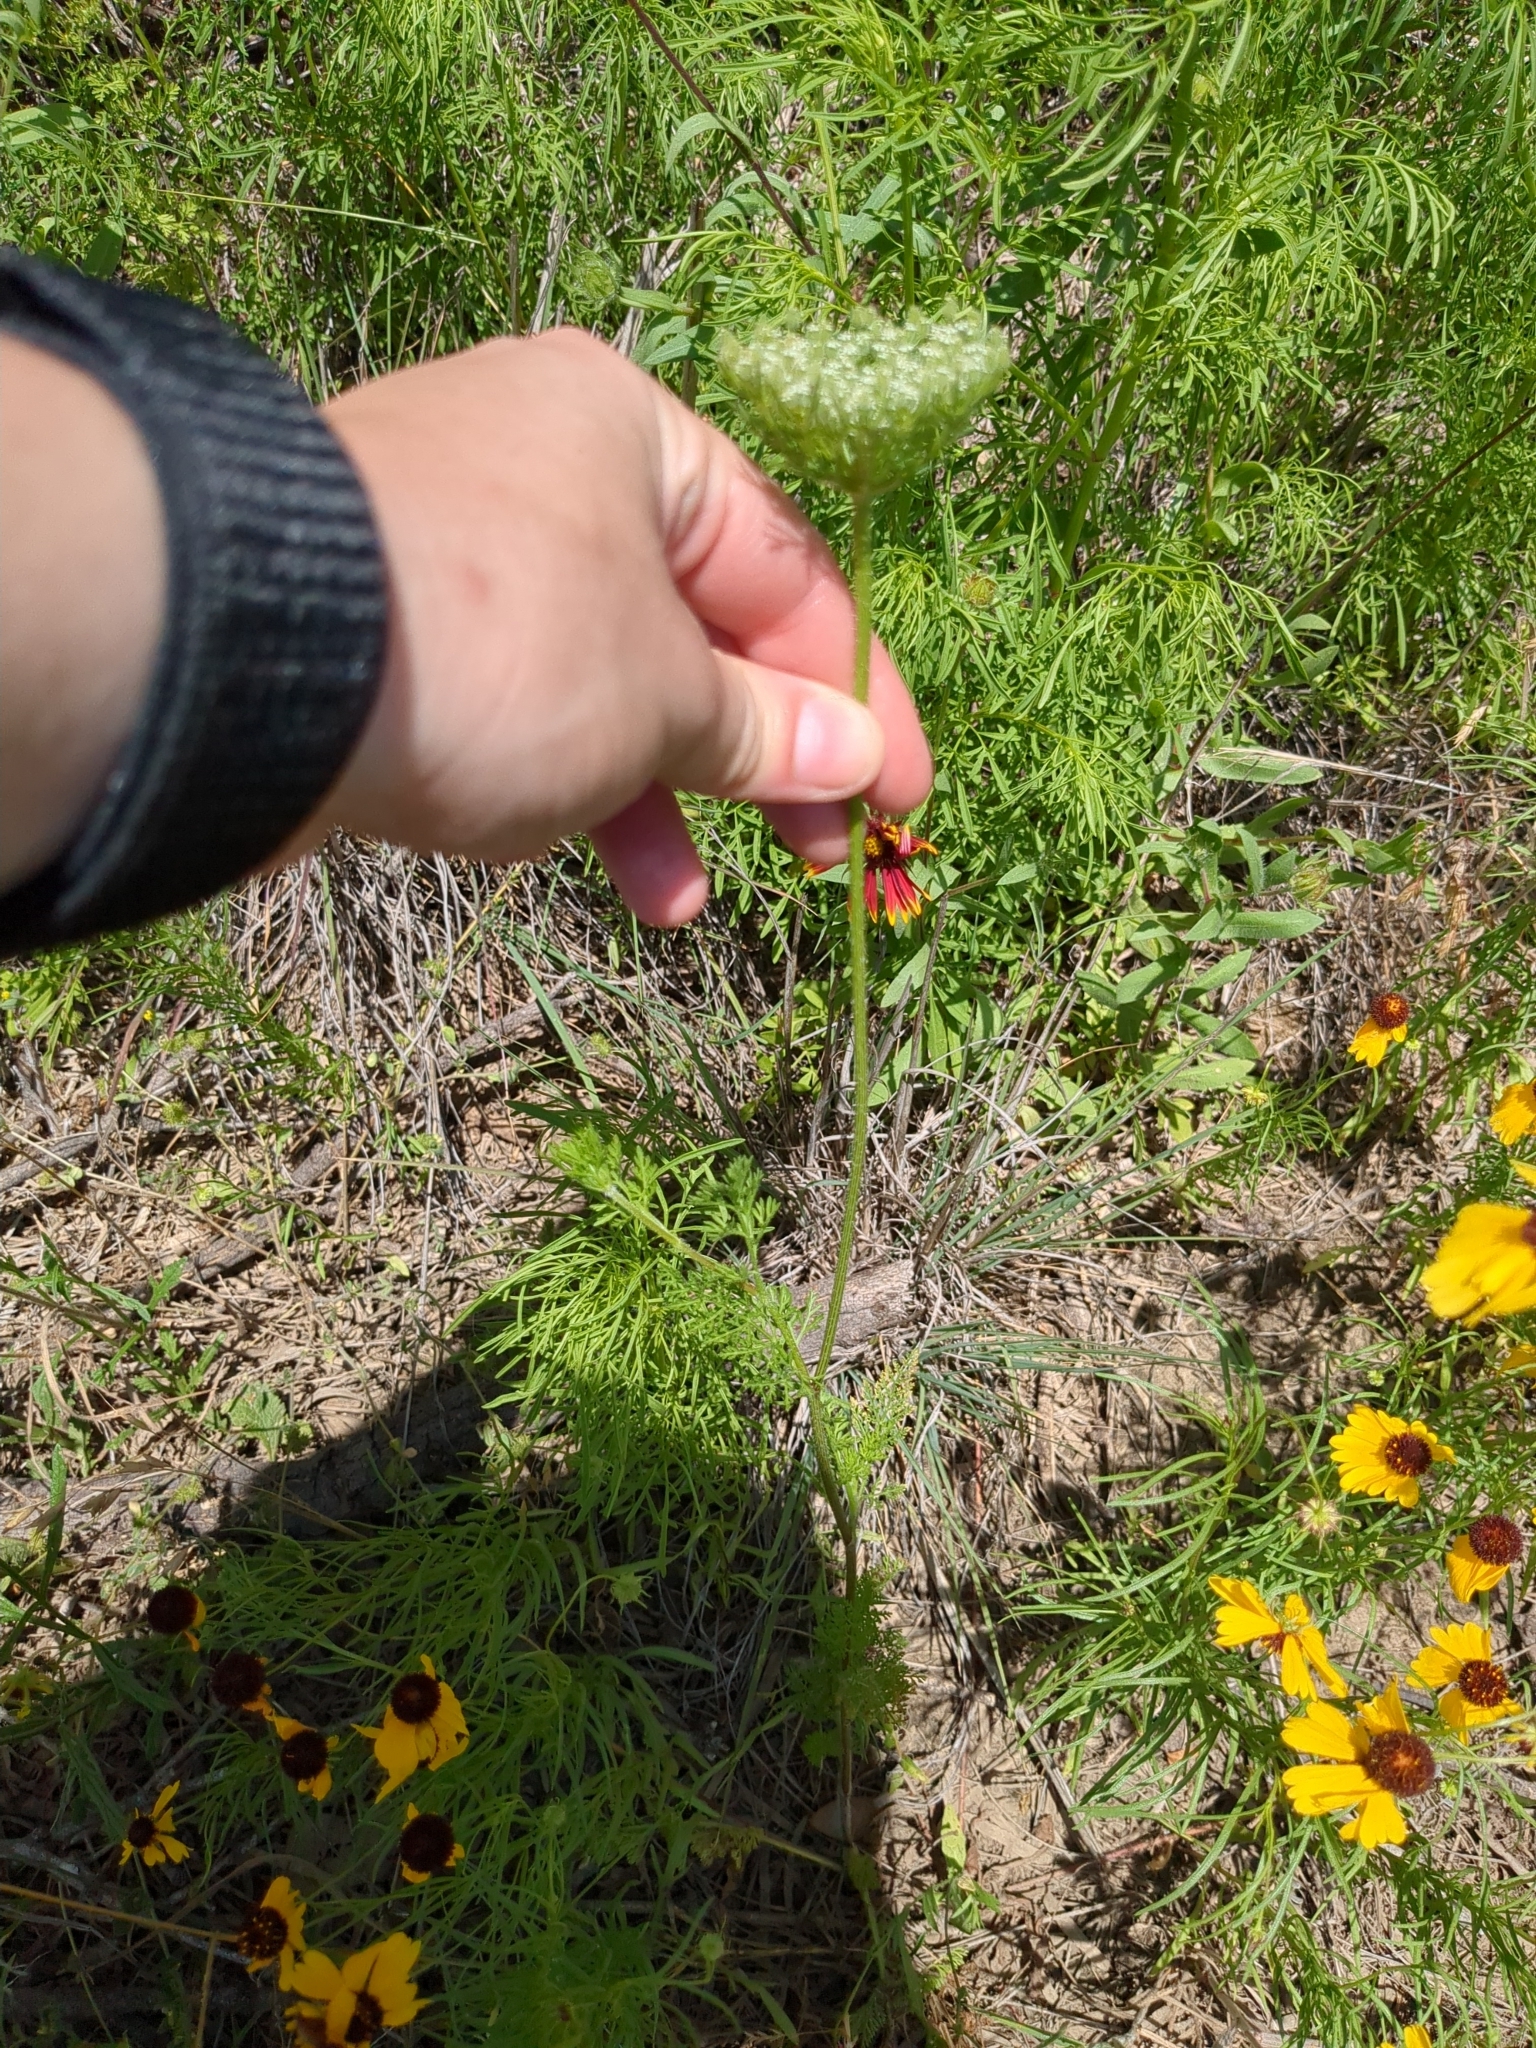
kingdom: Plantae
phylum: Tracheophyta
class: Magnoliopsida
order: Apiales
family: Apiaceae
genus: Daucus
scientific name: Daucus pusillus
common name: Southwest wild carrot
